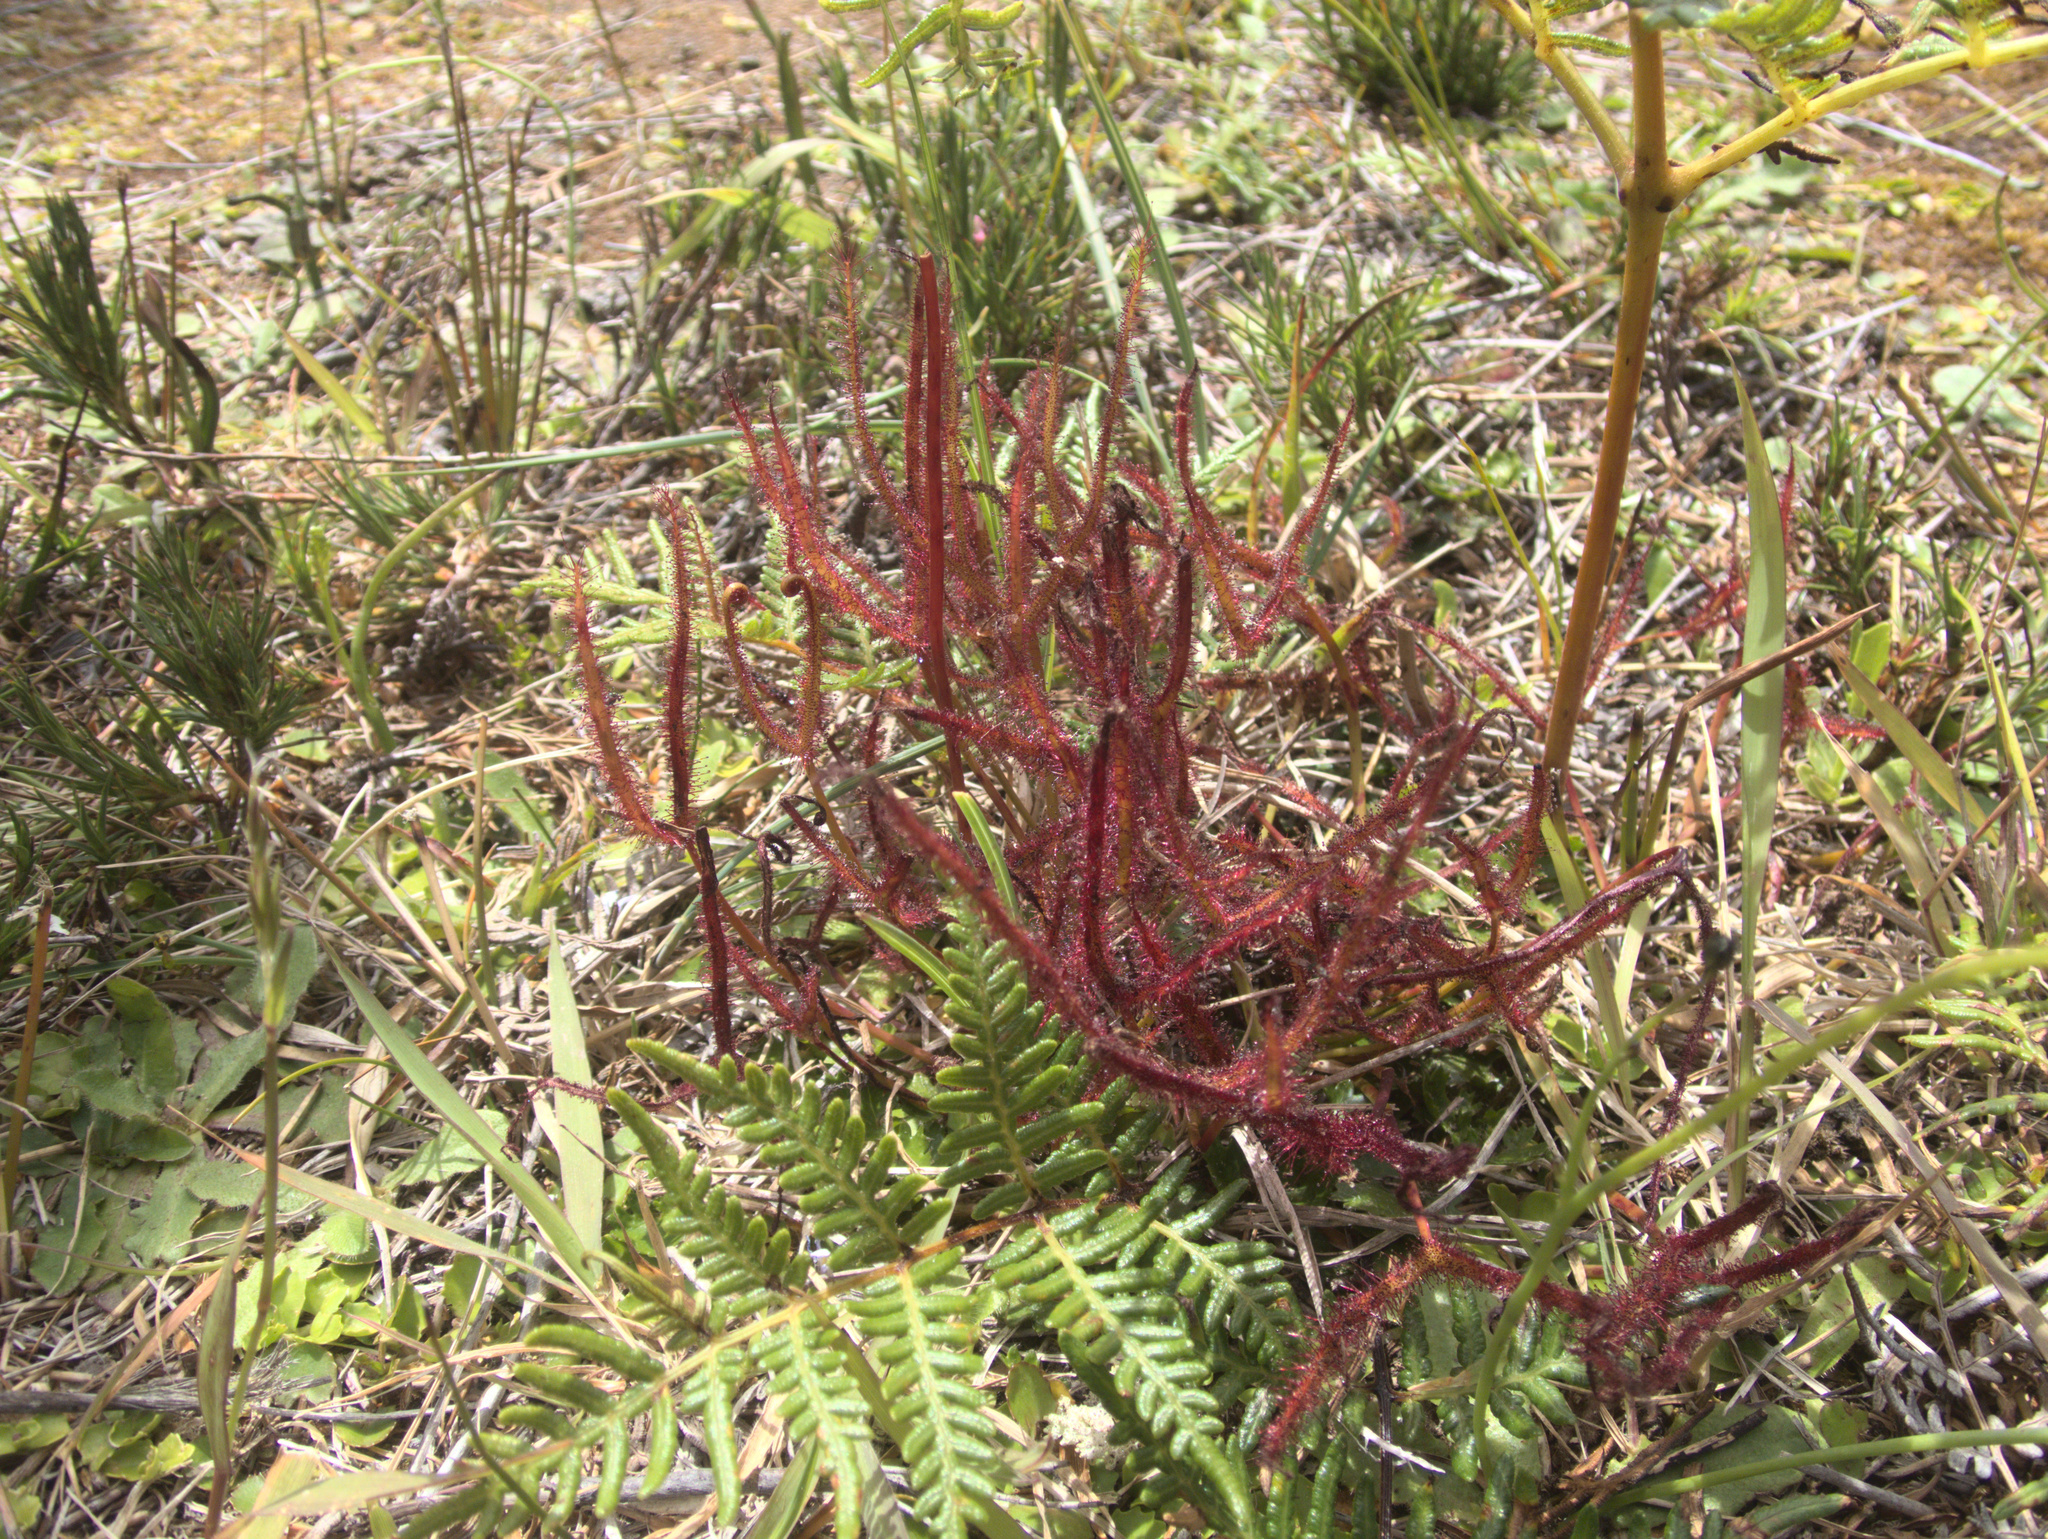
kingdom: Plantae
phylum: Tracheophyta
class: Magnoliopsida
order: Caryophyllales
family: Droseraceae
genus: Drosera
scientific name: Drosera binata
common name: Forked sundew
